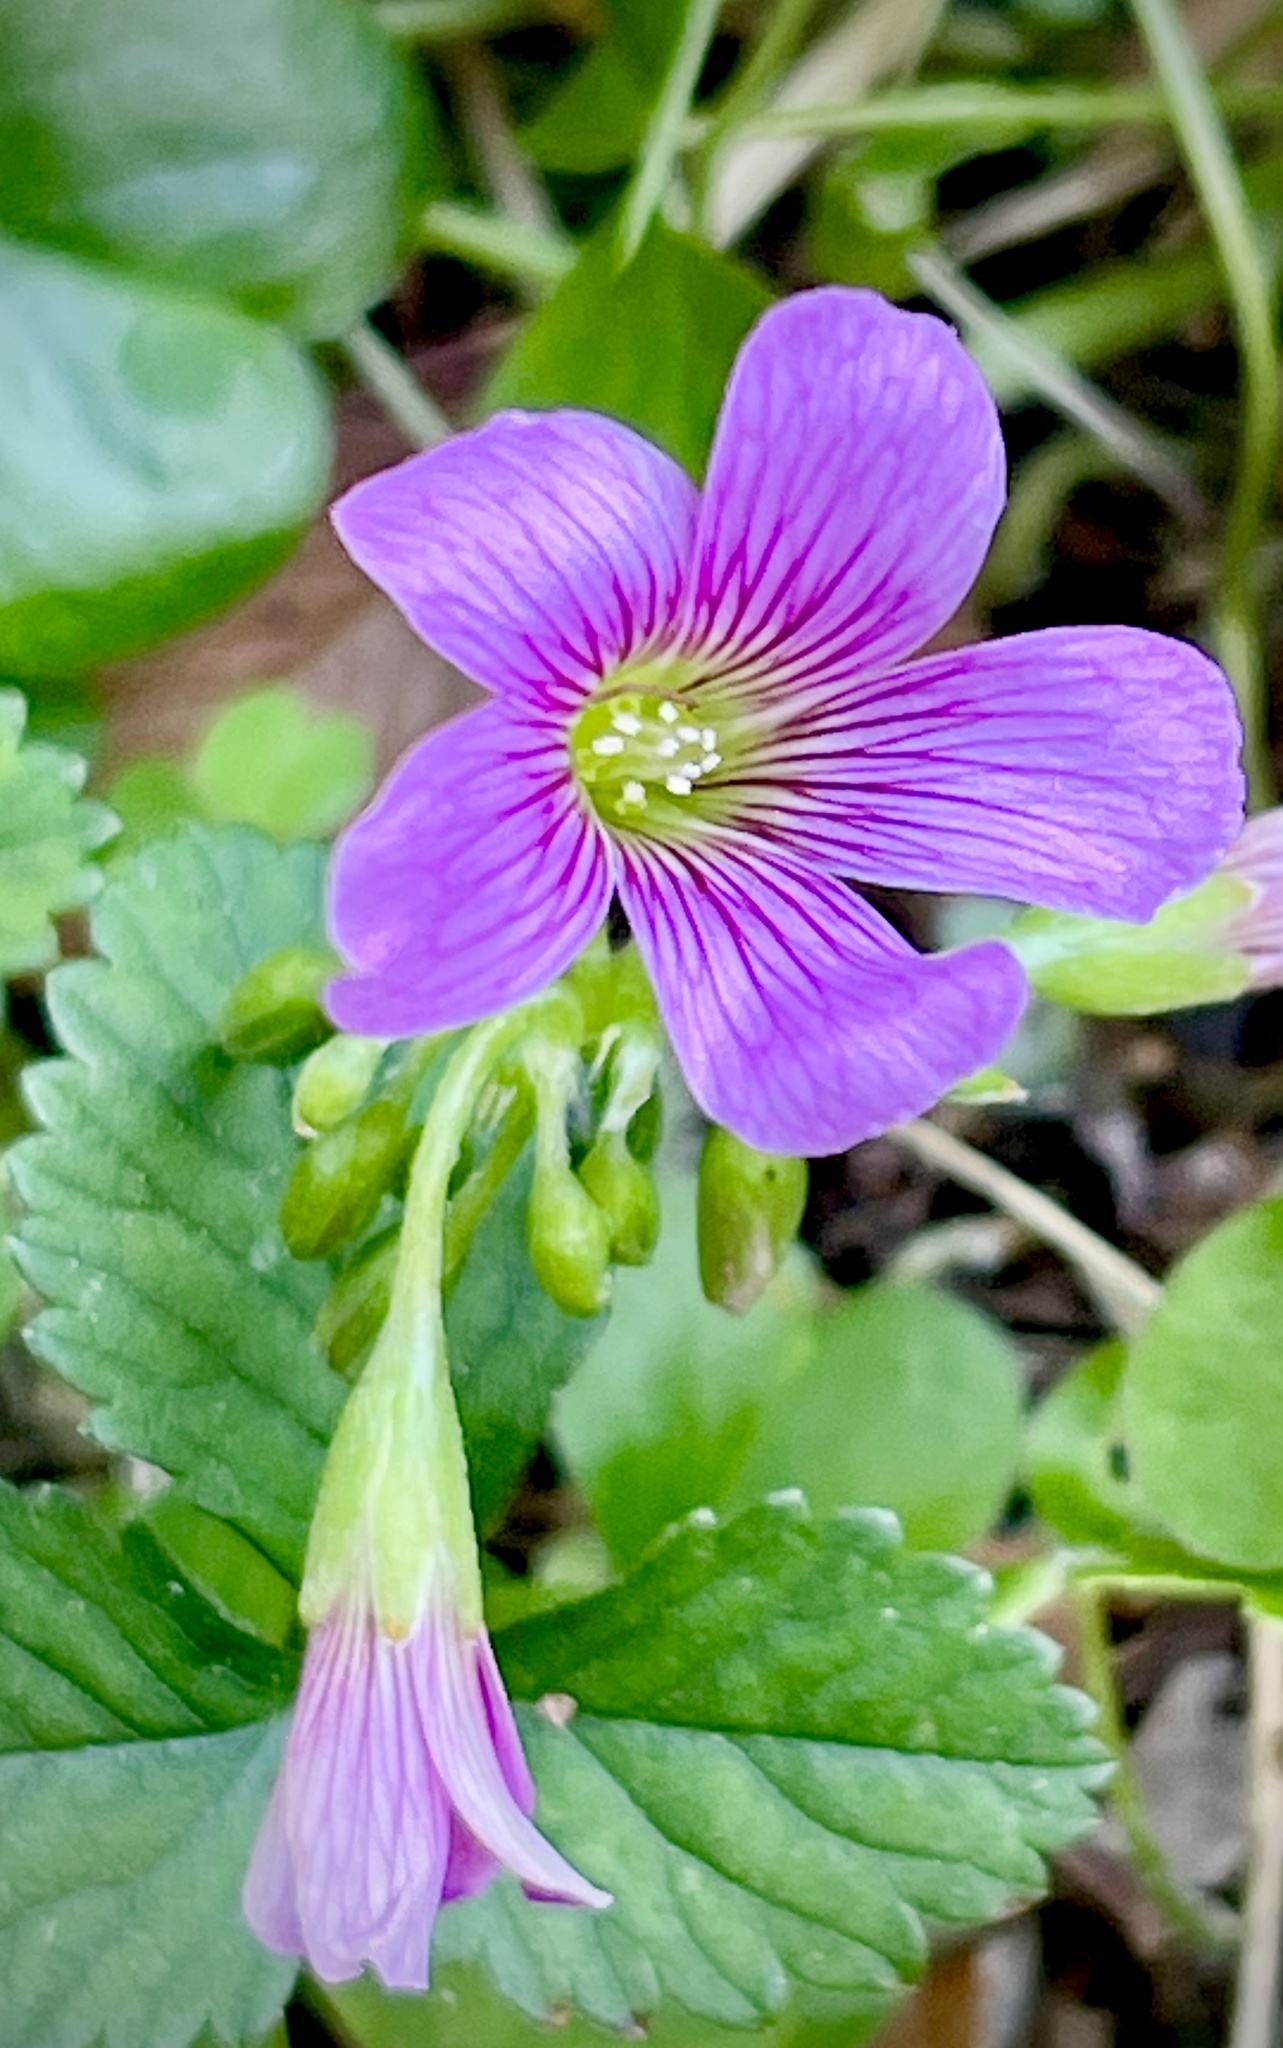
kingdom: Plantae
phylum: Tracheophyta
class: Magnoliopsida
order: Oxalidales
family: Oxalidaceae
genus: Oxalis
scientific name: Oxalis debilis
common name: Large-flowered pink-sorrel
